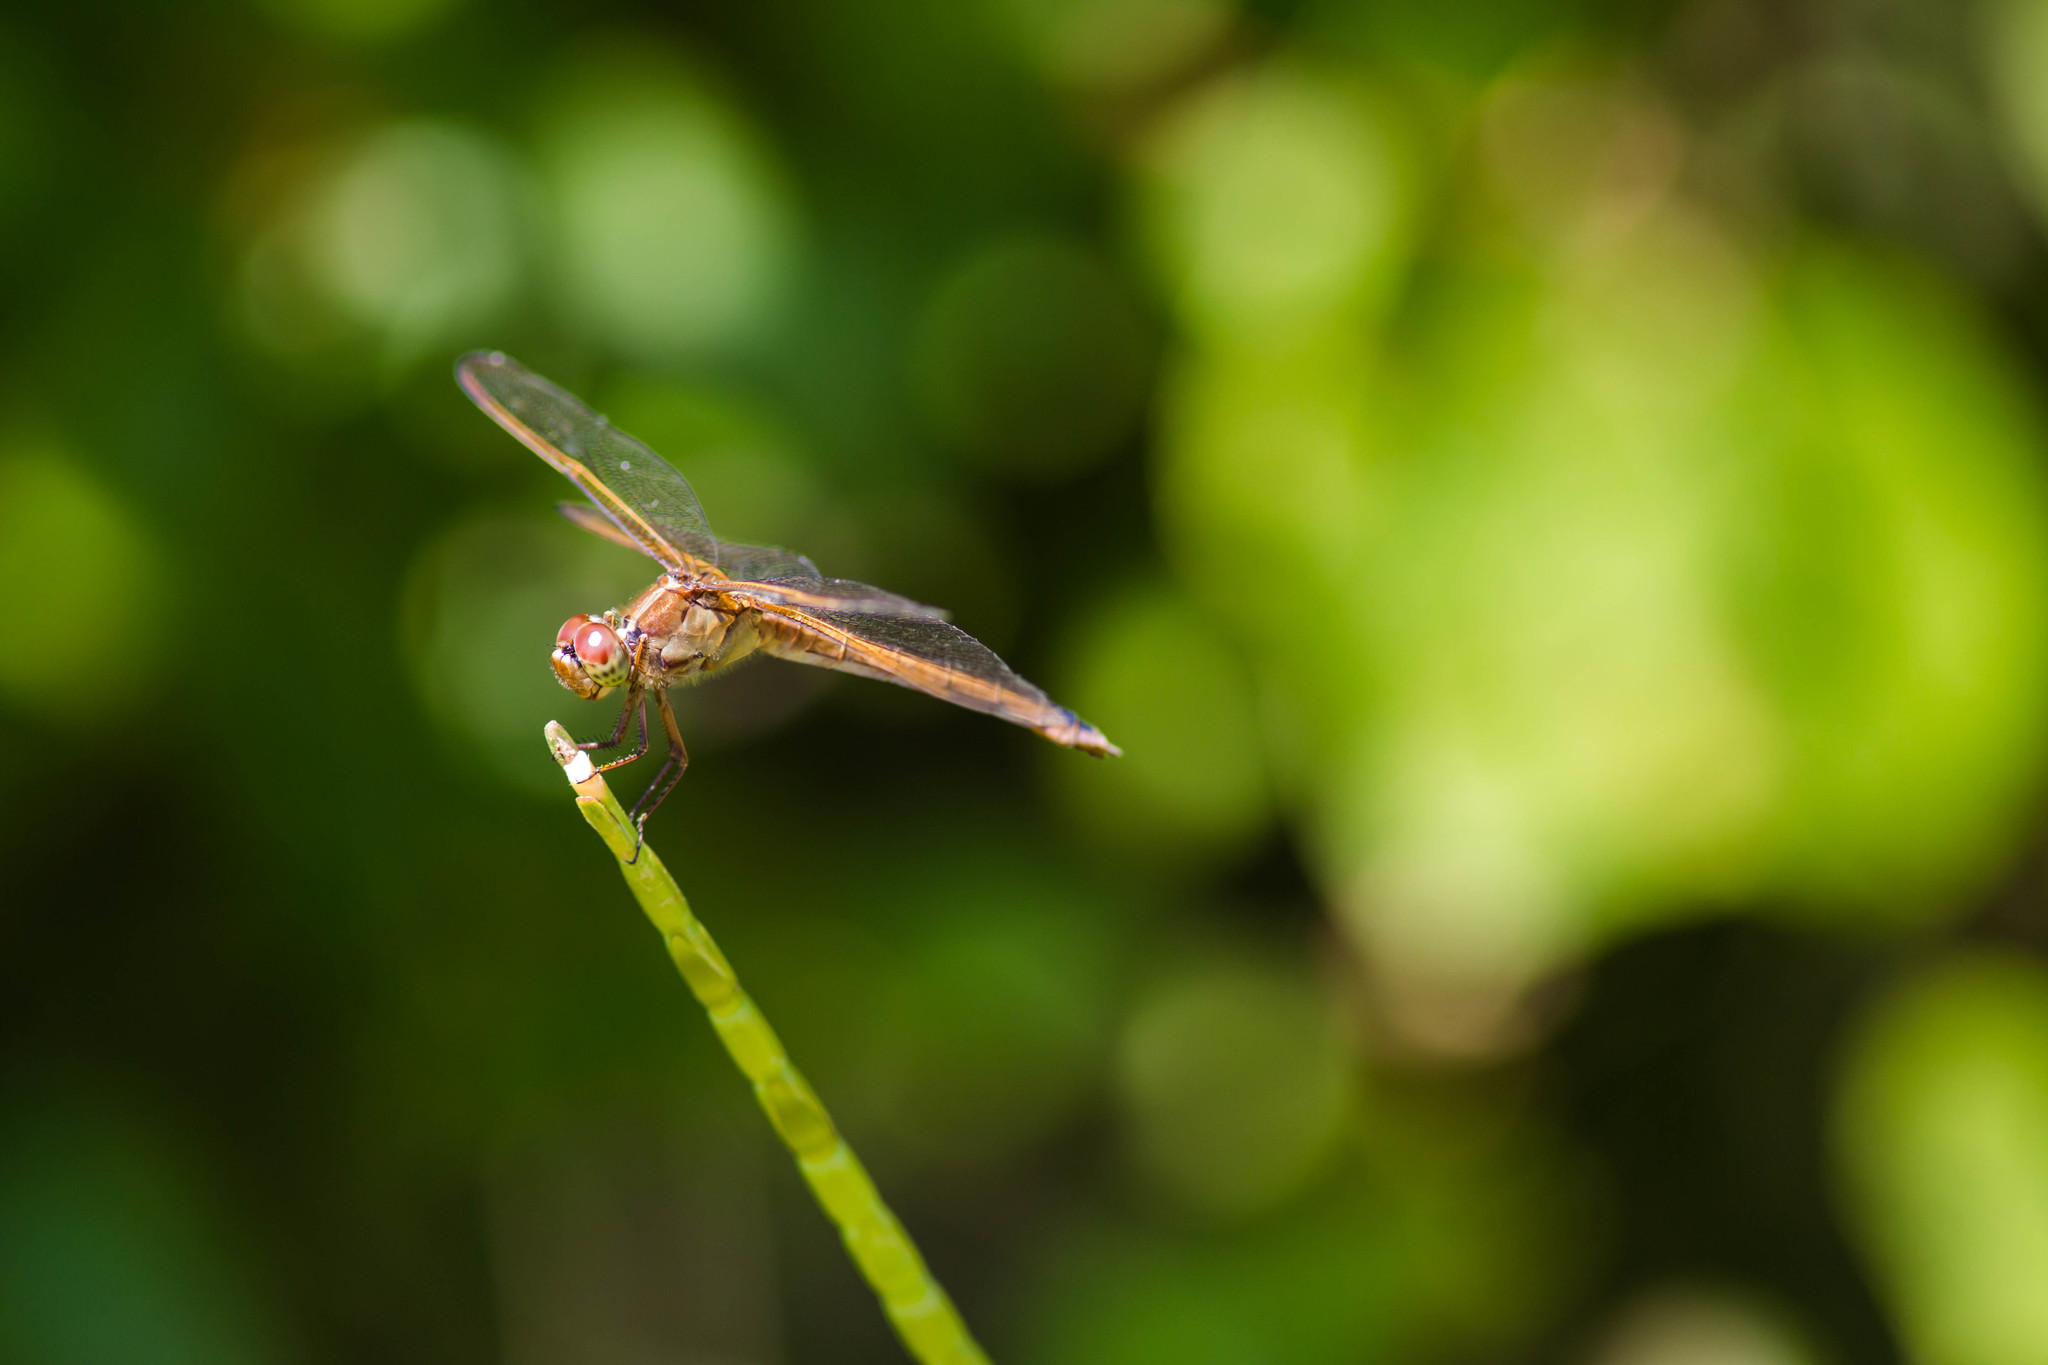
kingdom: Animalia
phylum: Arthropoda
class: Insecta
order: Odonata
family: Libellulidae
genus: Libellula
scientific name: Libellula needhami
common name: Needham's skimmer
